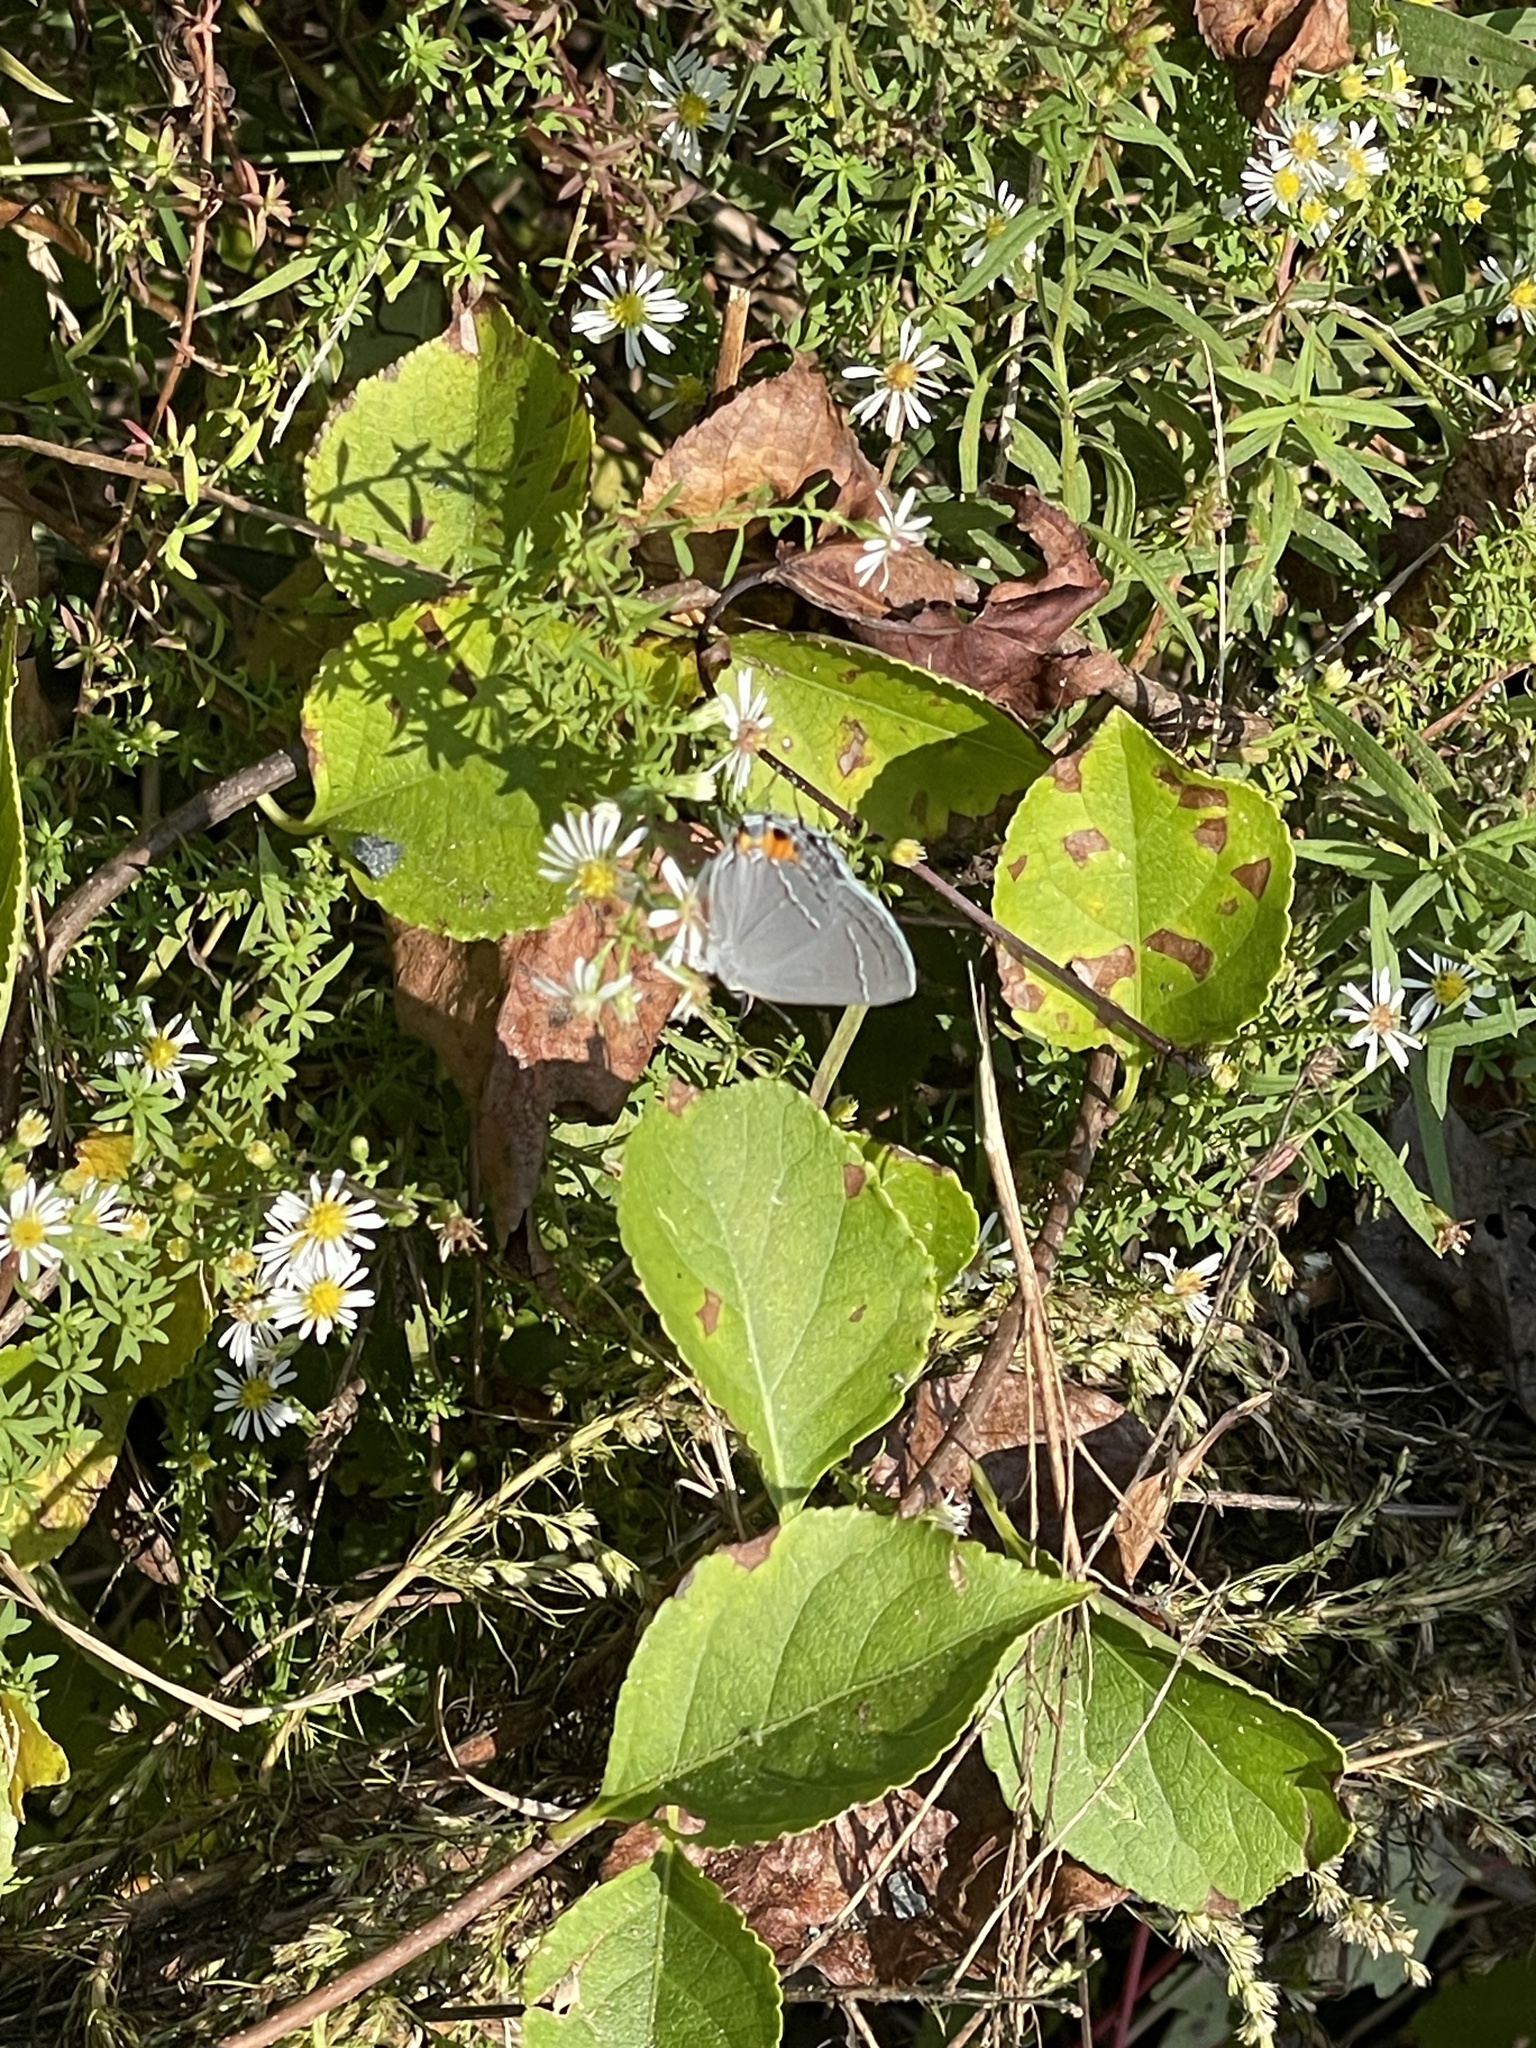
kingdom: Animalia
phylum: Arthropoda
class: Insecta
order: Lepidoptera
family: Lycaenidae
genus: Strymon
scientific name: Strymon melinus
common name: Gray hairstreak
